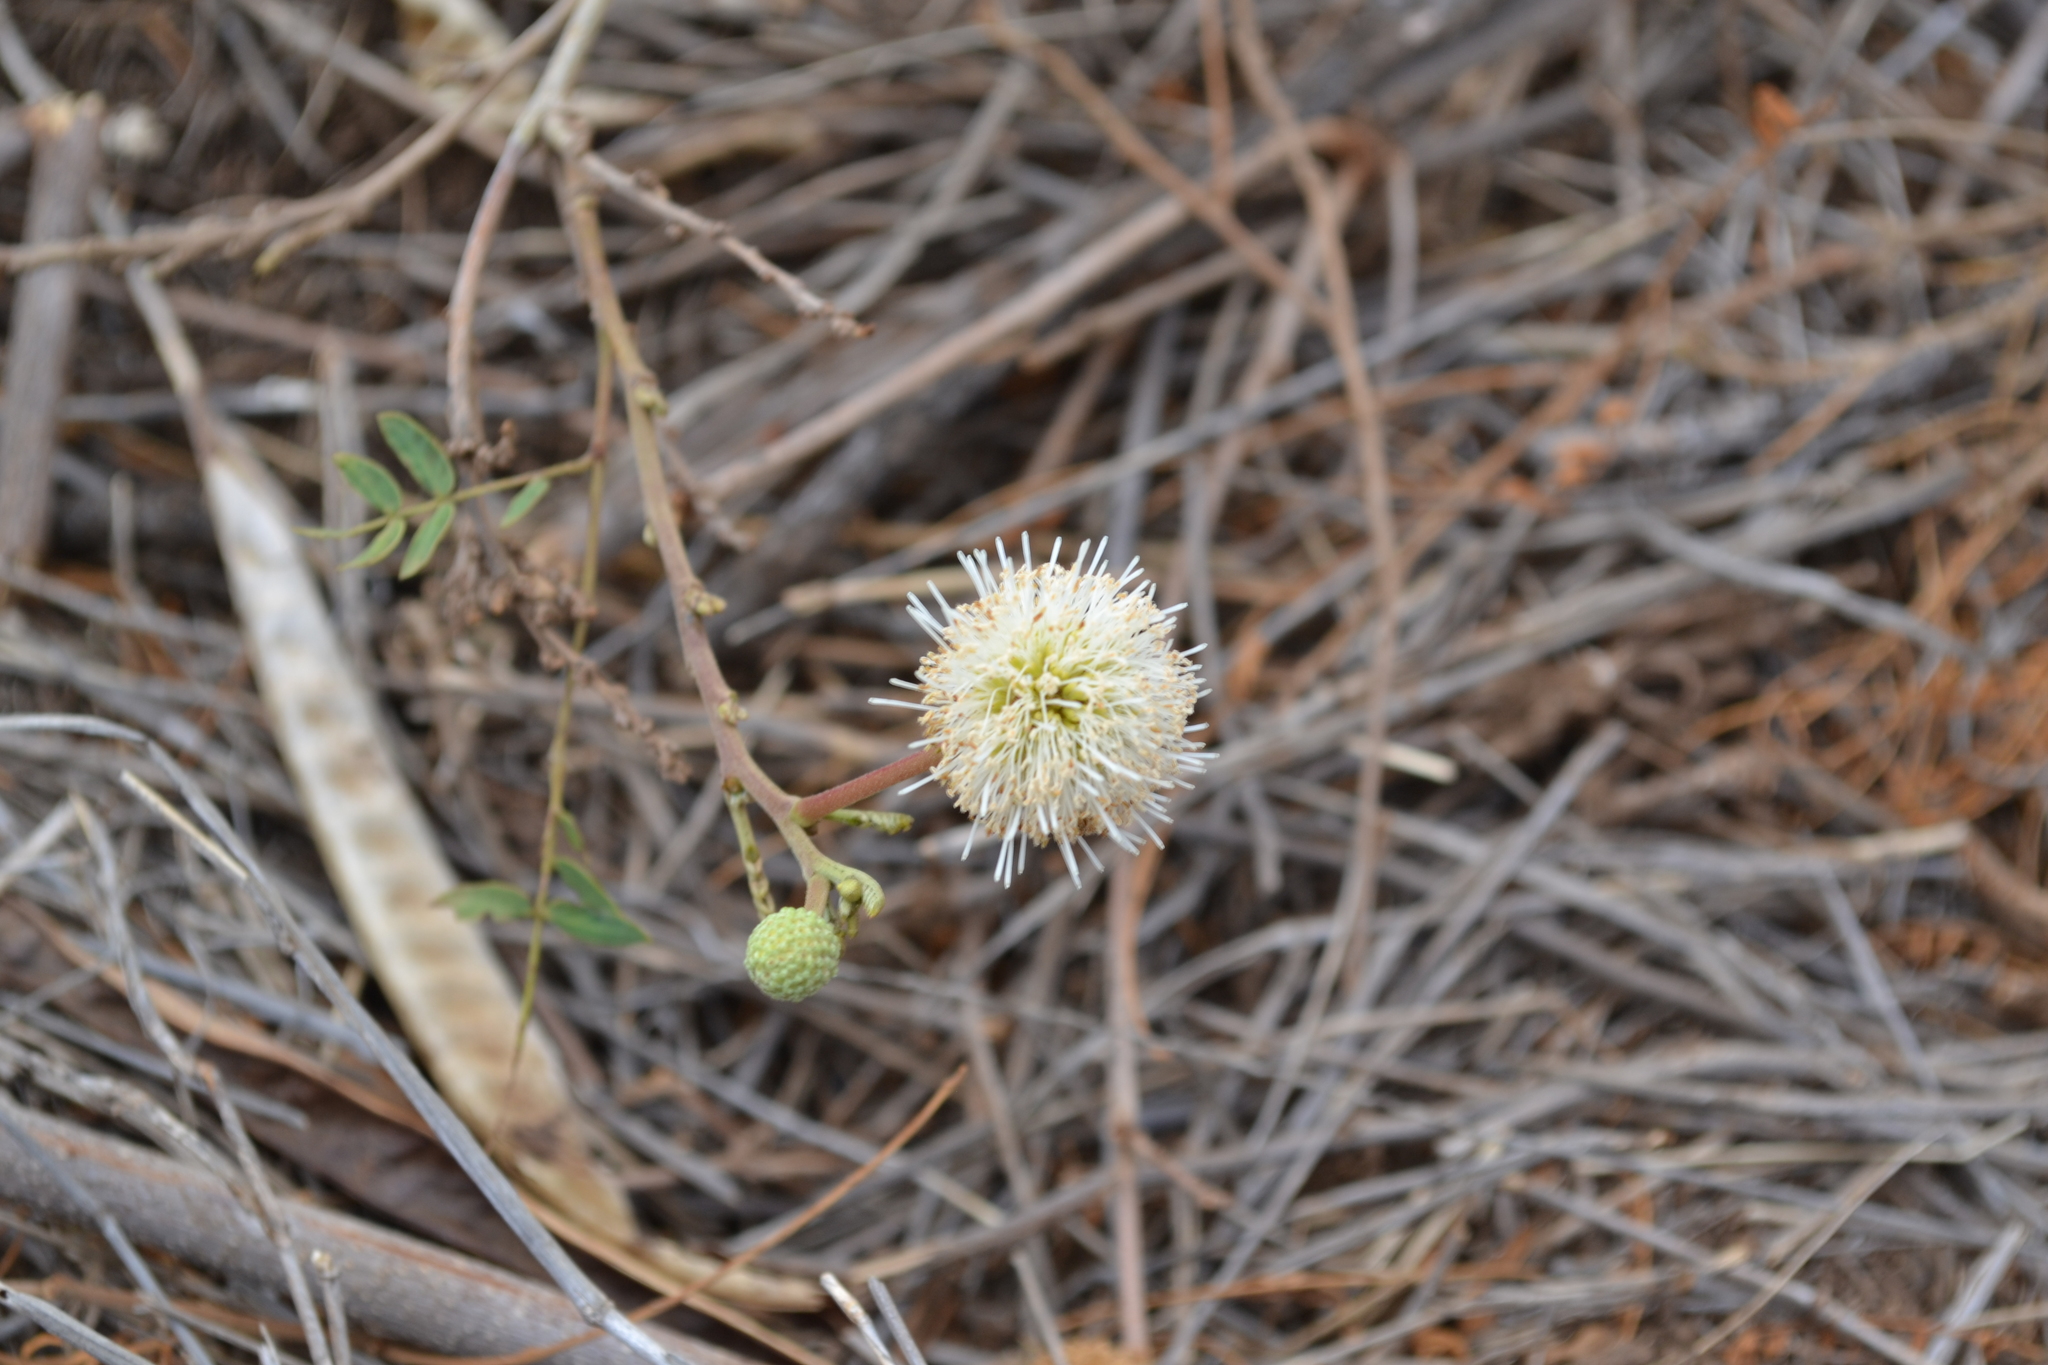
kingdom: Plantae
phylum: Tracheophyta
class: Magnoliopsida
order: Fabales
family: Fabaceae
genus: Leucaena
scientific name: Leucaena leucocephala
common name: White leadtree
